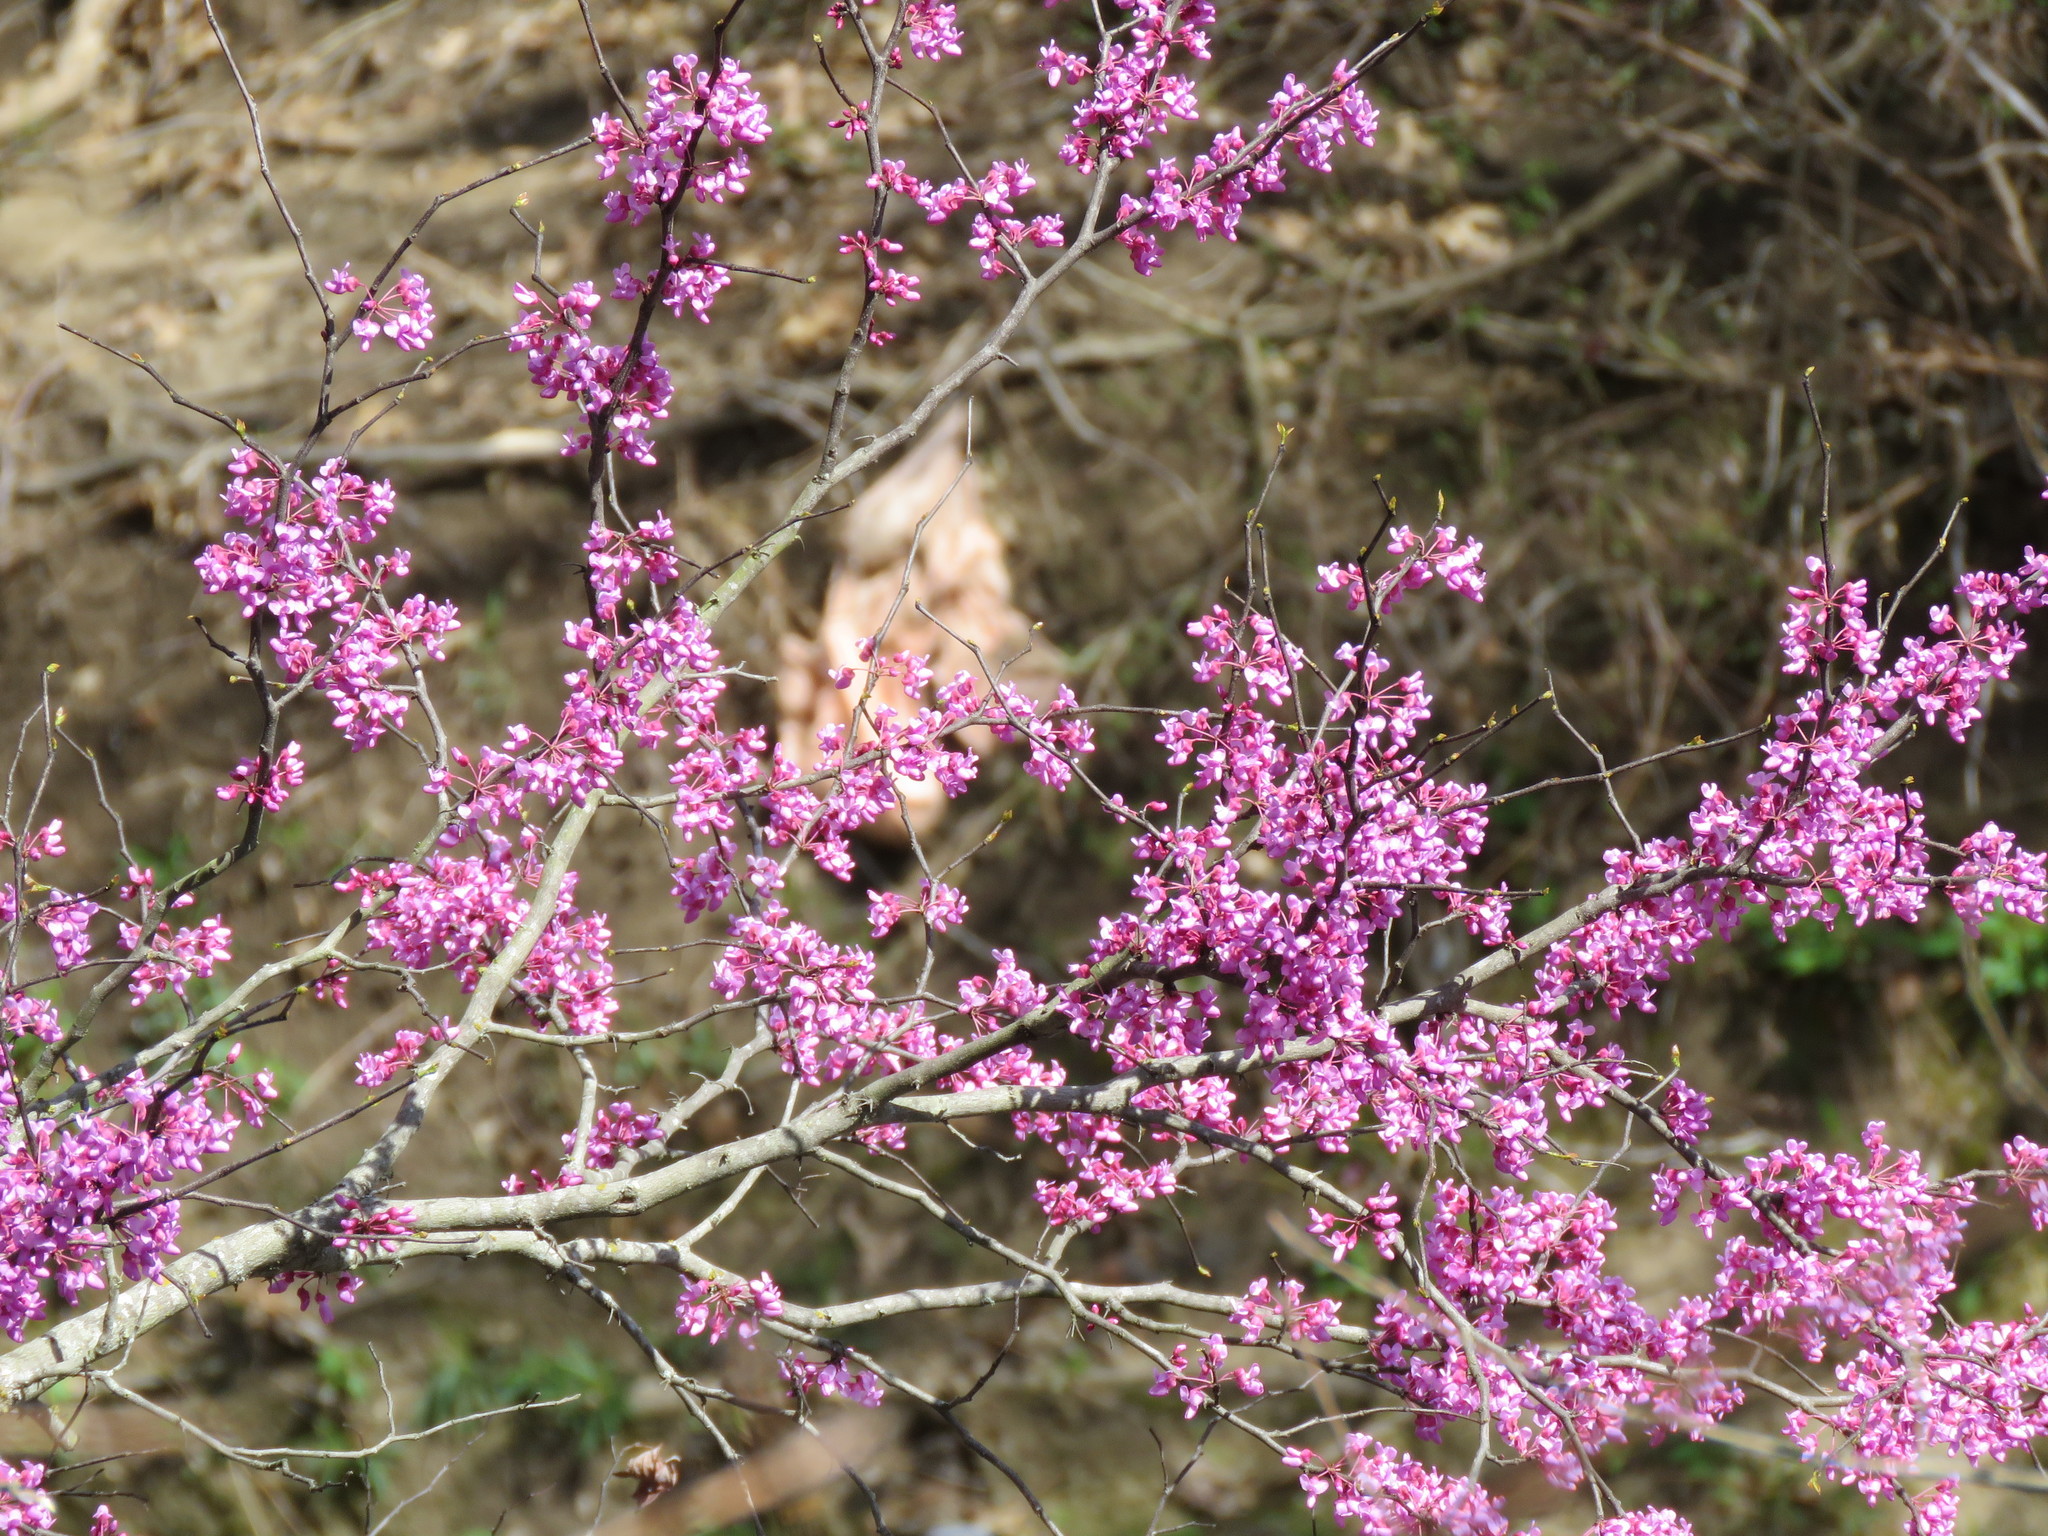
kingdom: Plantae
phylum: Tracheophyta
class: Magnoliopsida
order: Fabales
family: Fabaceae
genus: Cercis
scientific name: Cercis canadensis
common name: Eastern redbud
